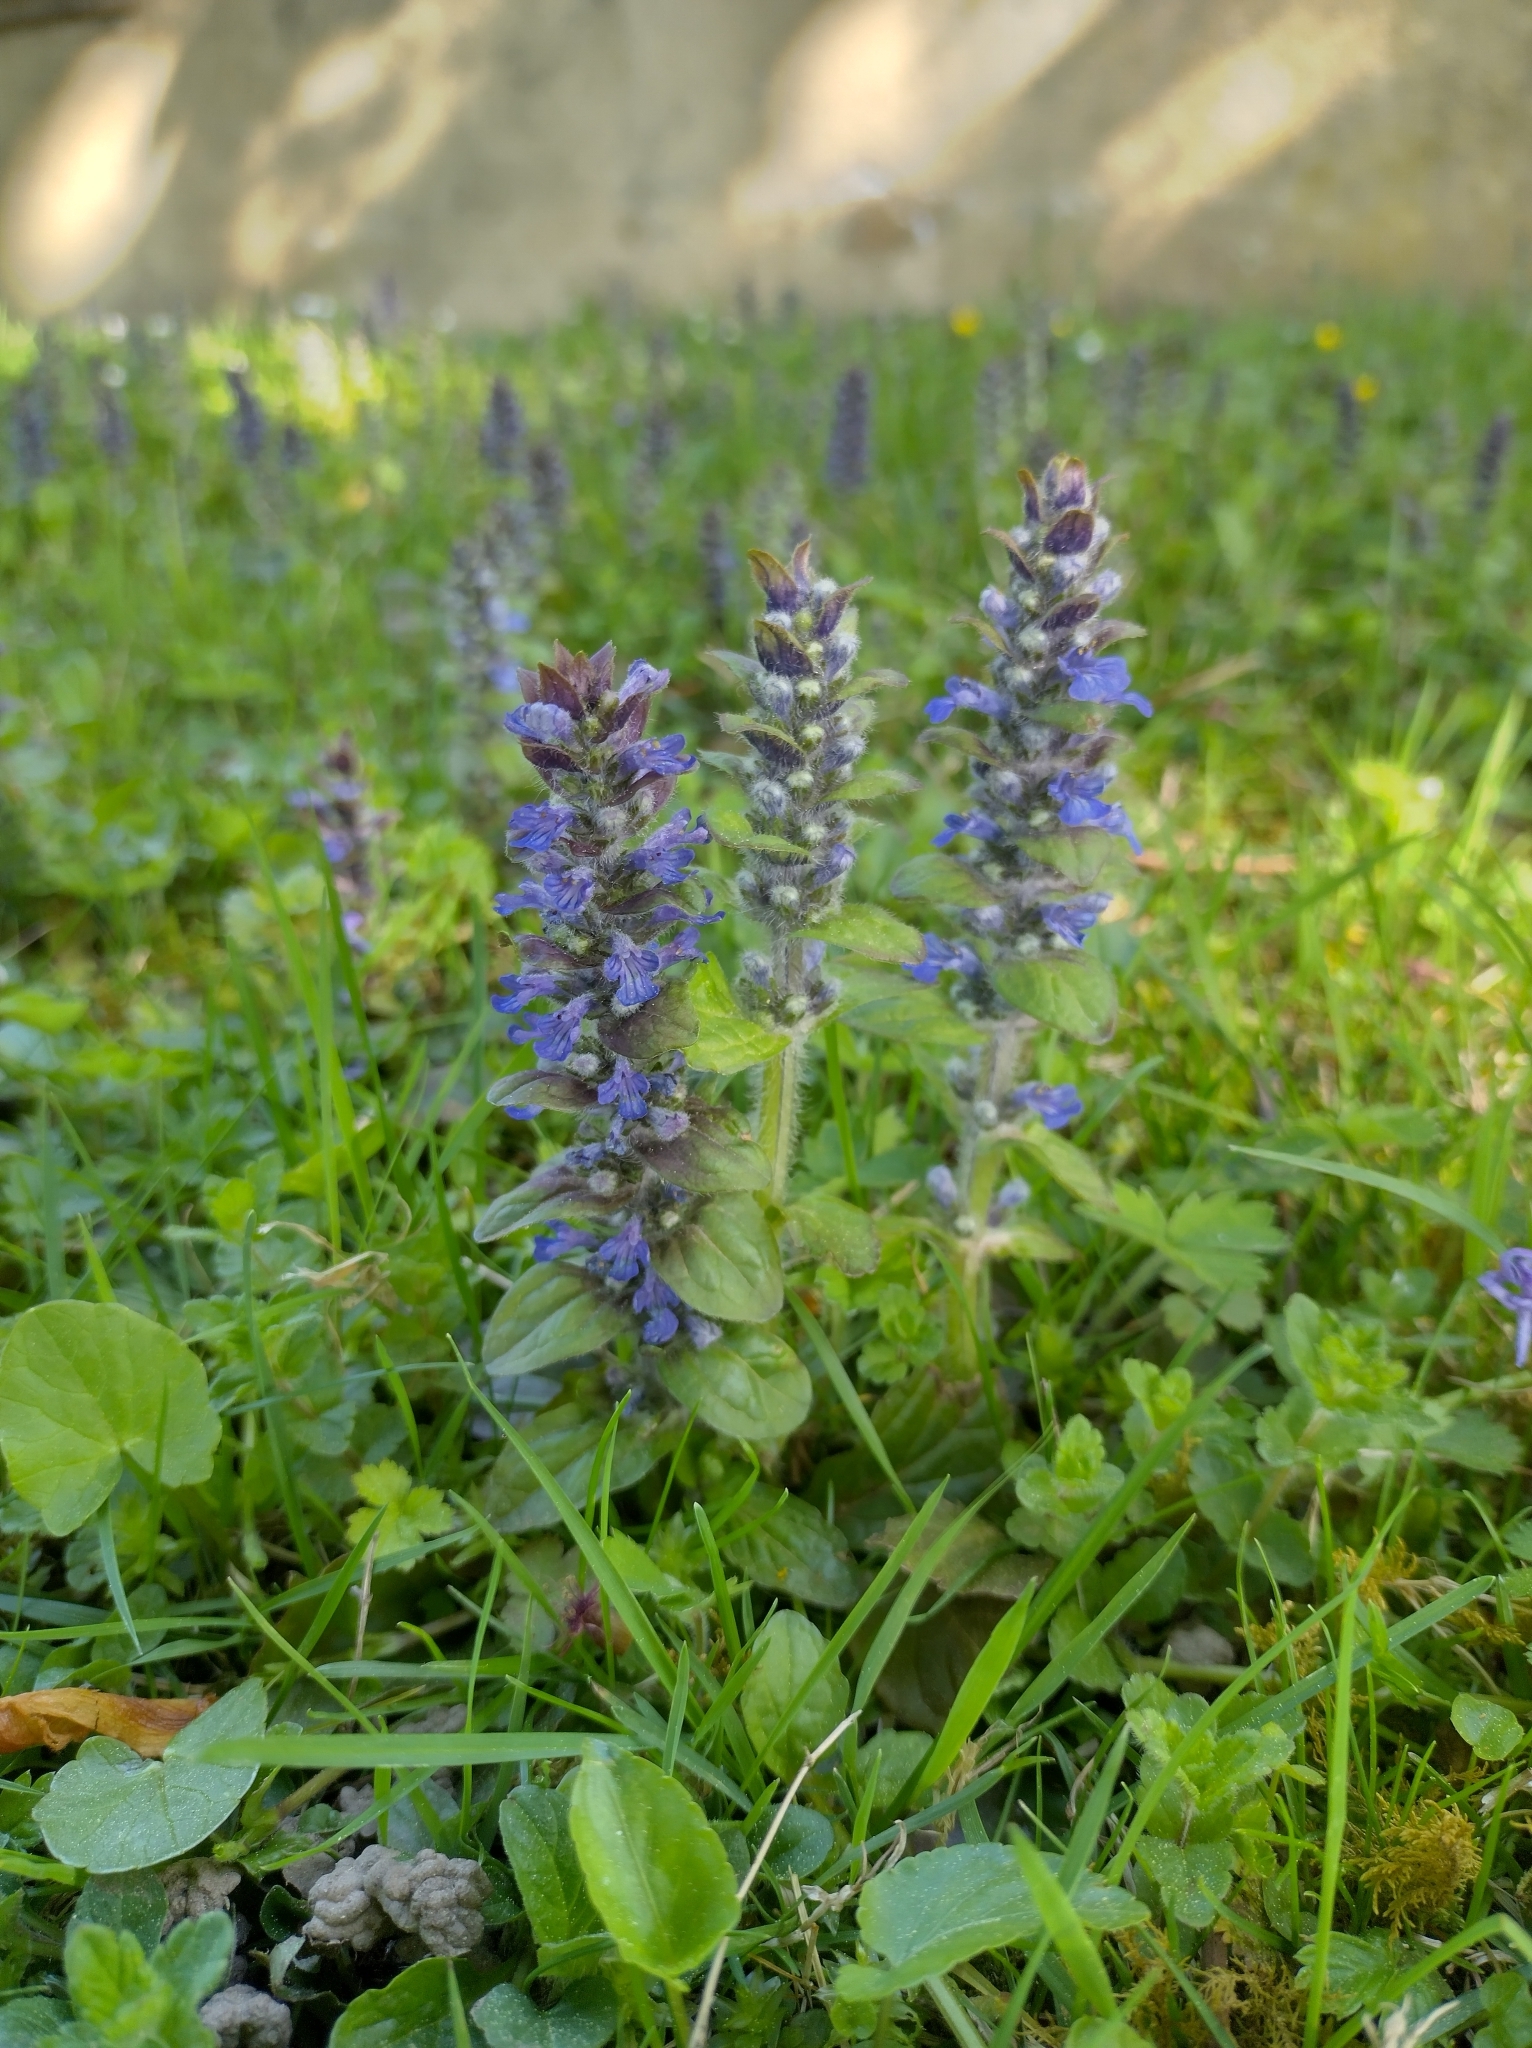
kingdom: Plantae
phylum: Tracheophyta
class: Magnoliopsida
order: Lamiales
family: Lamiaceae
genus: Ajuga
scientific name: Ajuga reptans
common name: Bugle
